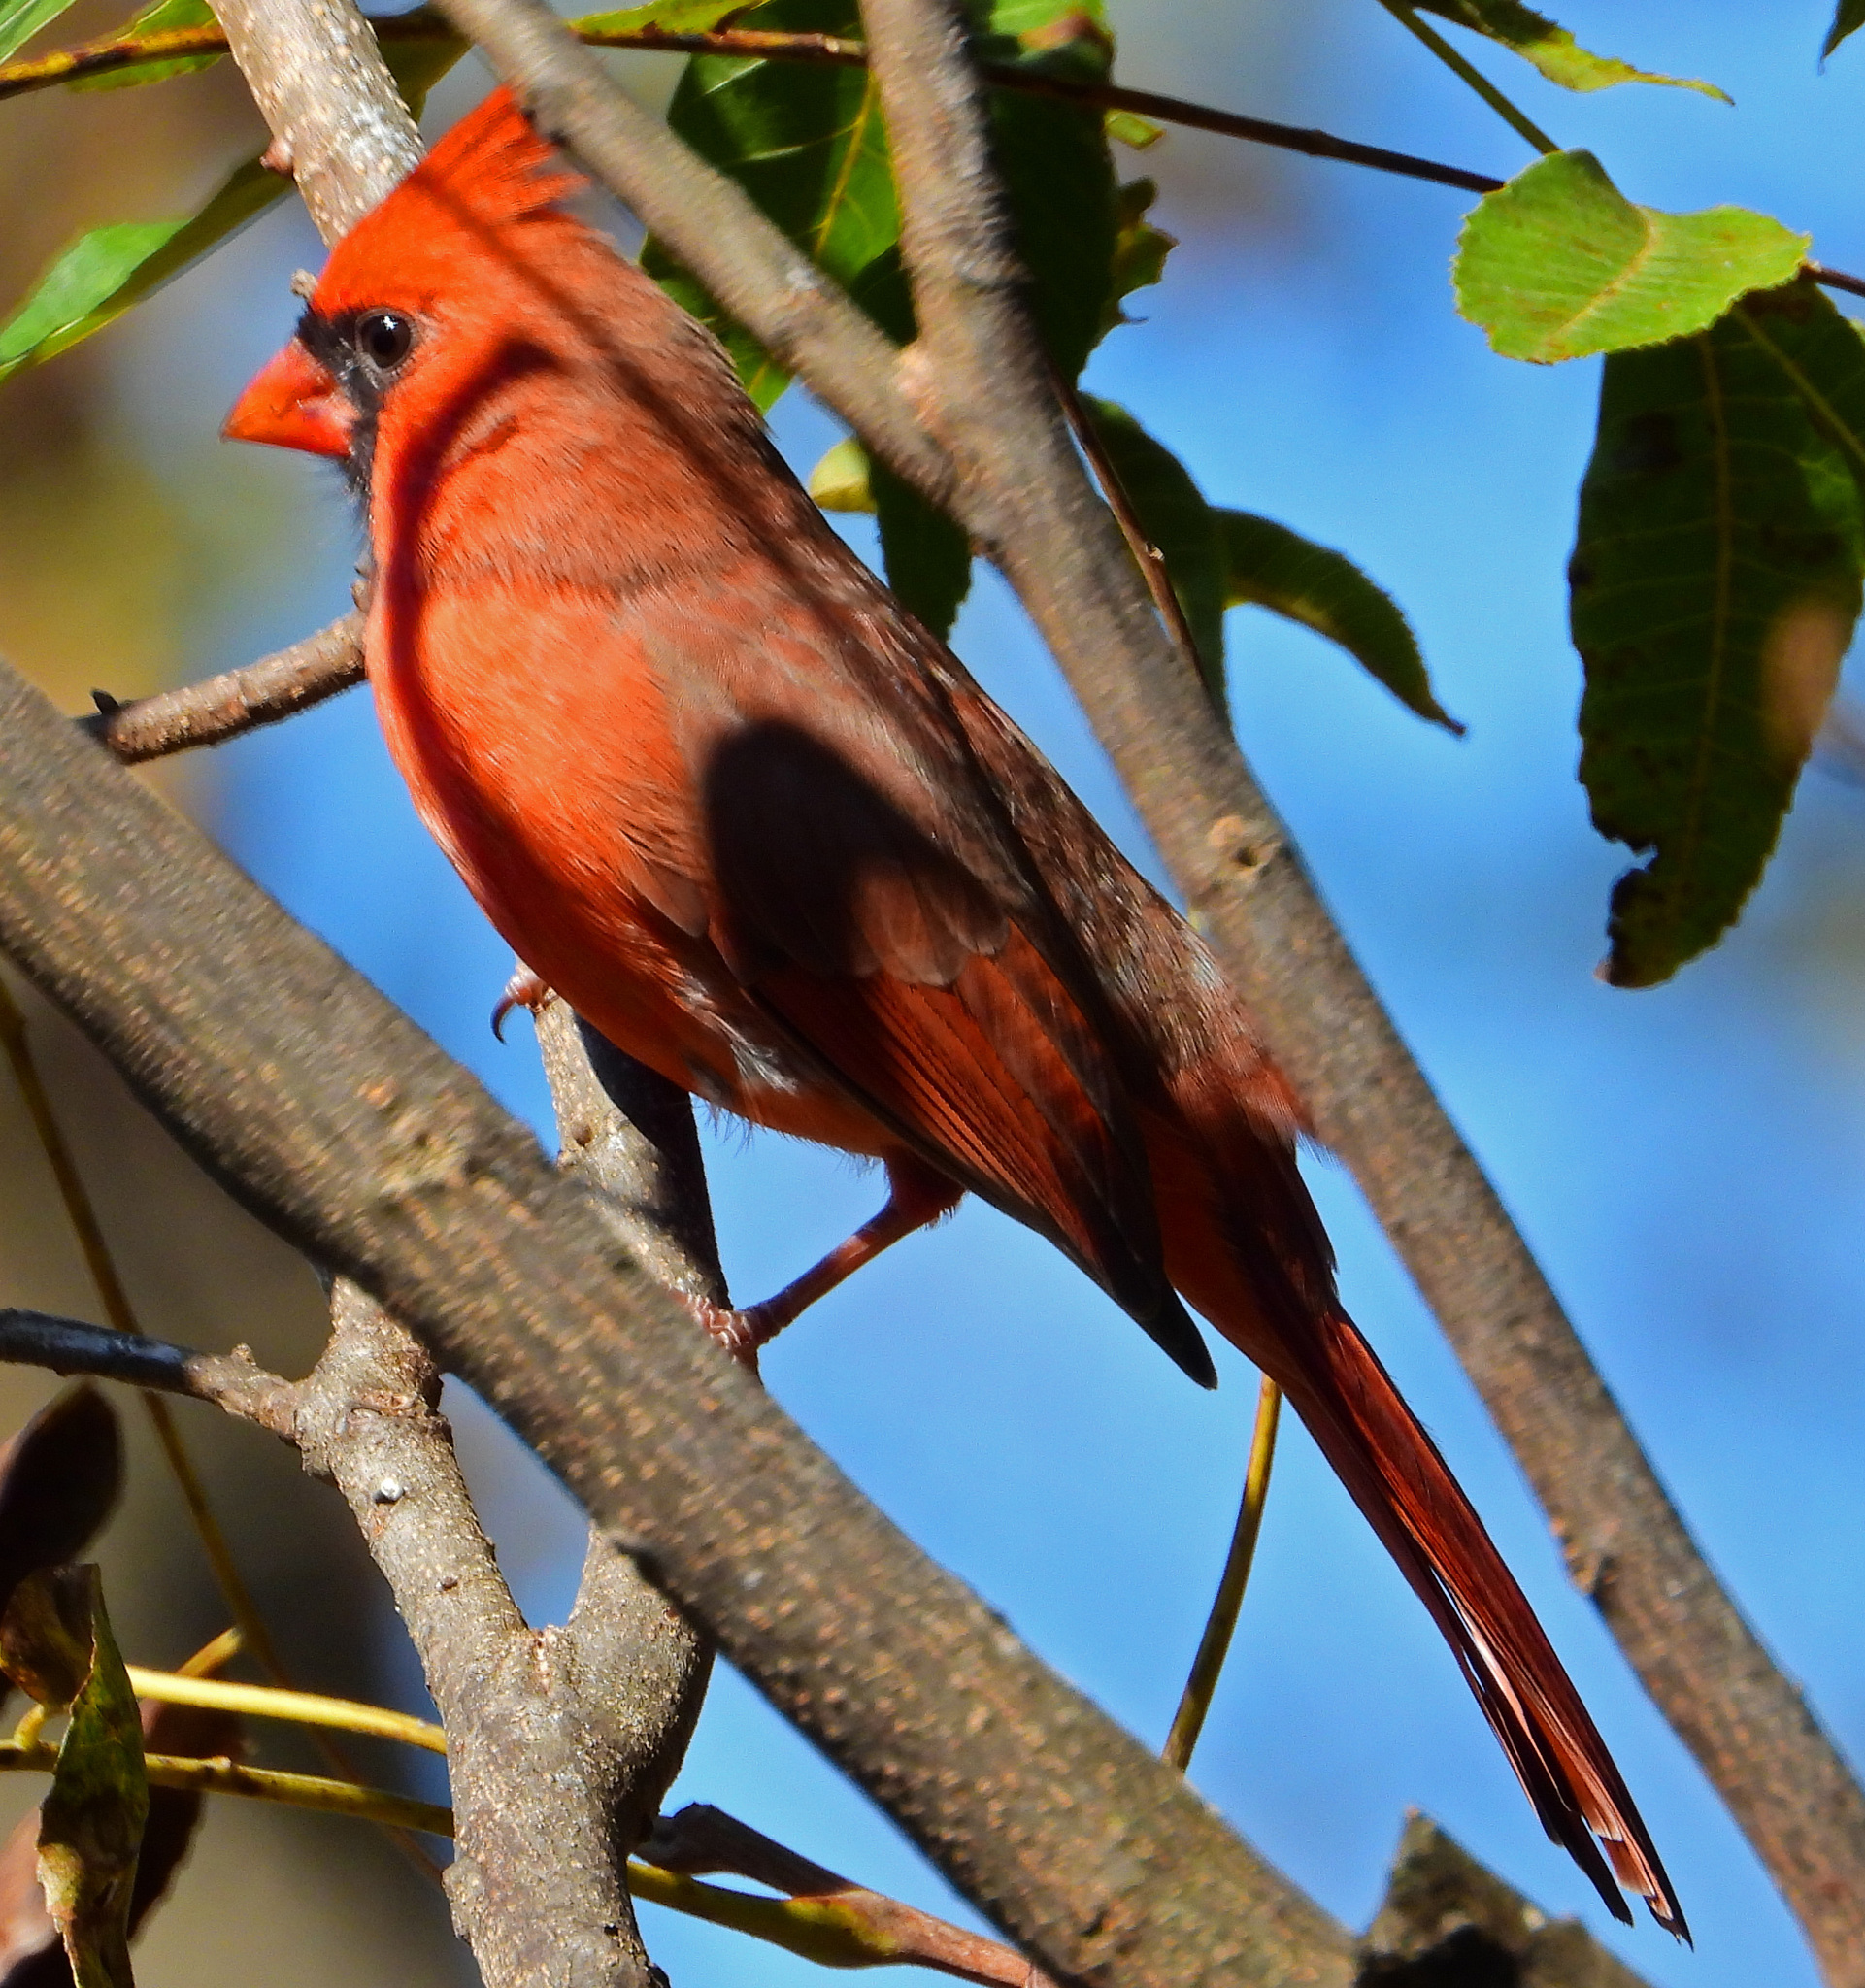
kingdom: Animalia
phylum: Chordata
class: Aves
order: Passeriformes
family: Cardinalidae
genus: Cardinalis
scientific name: Cardinalis cardinalis
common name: Northern cardinal
